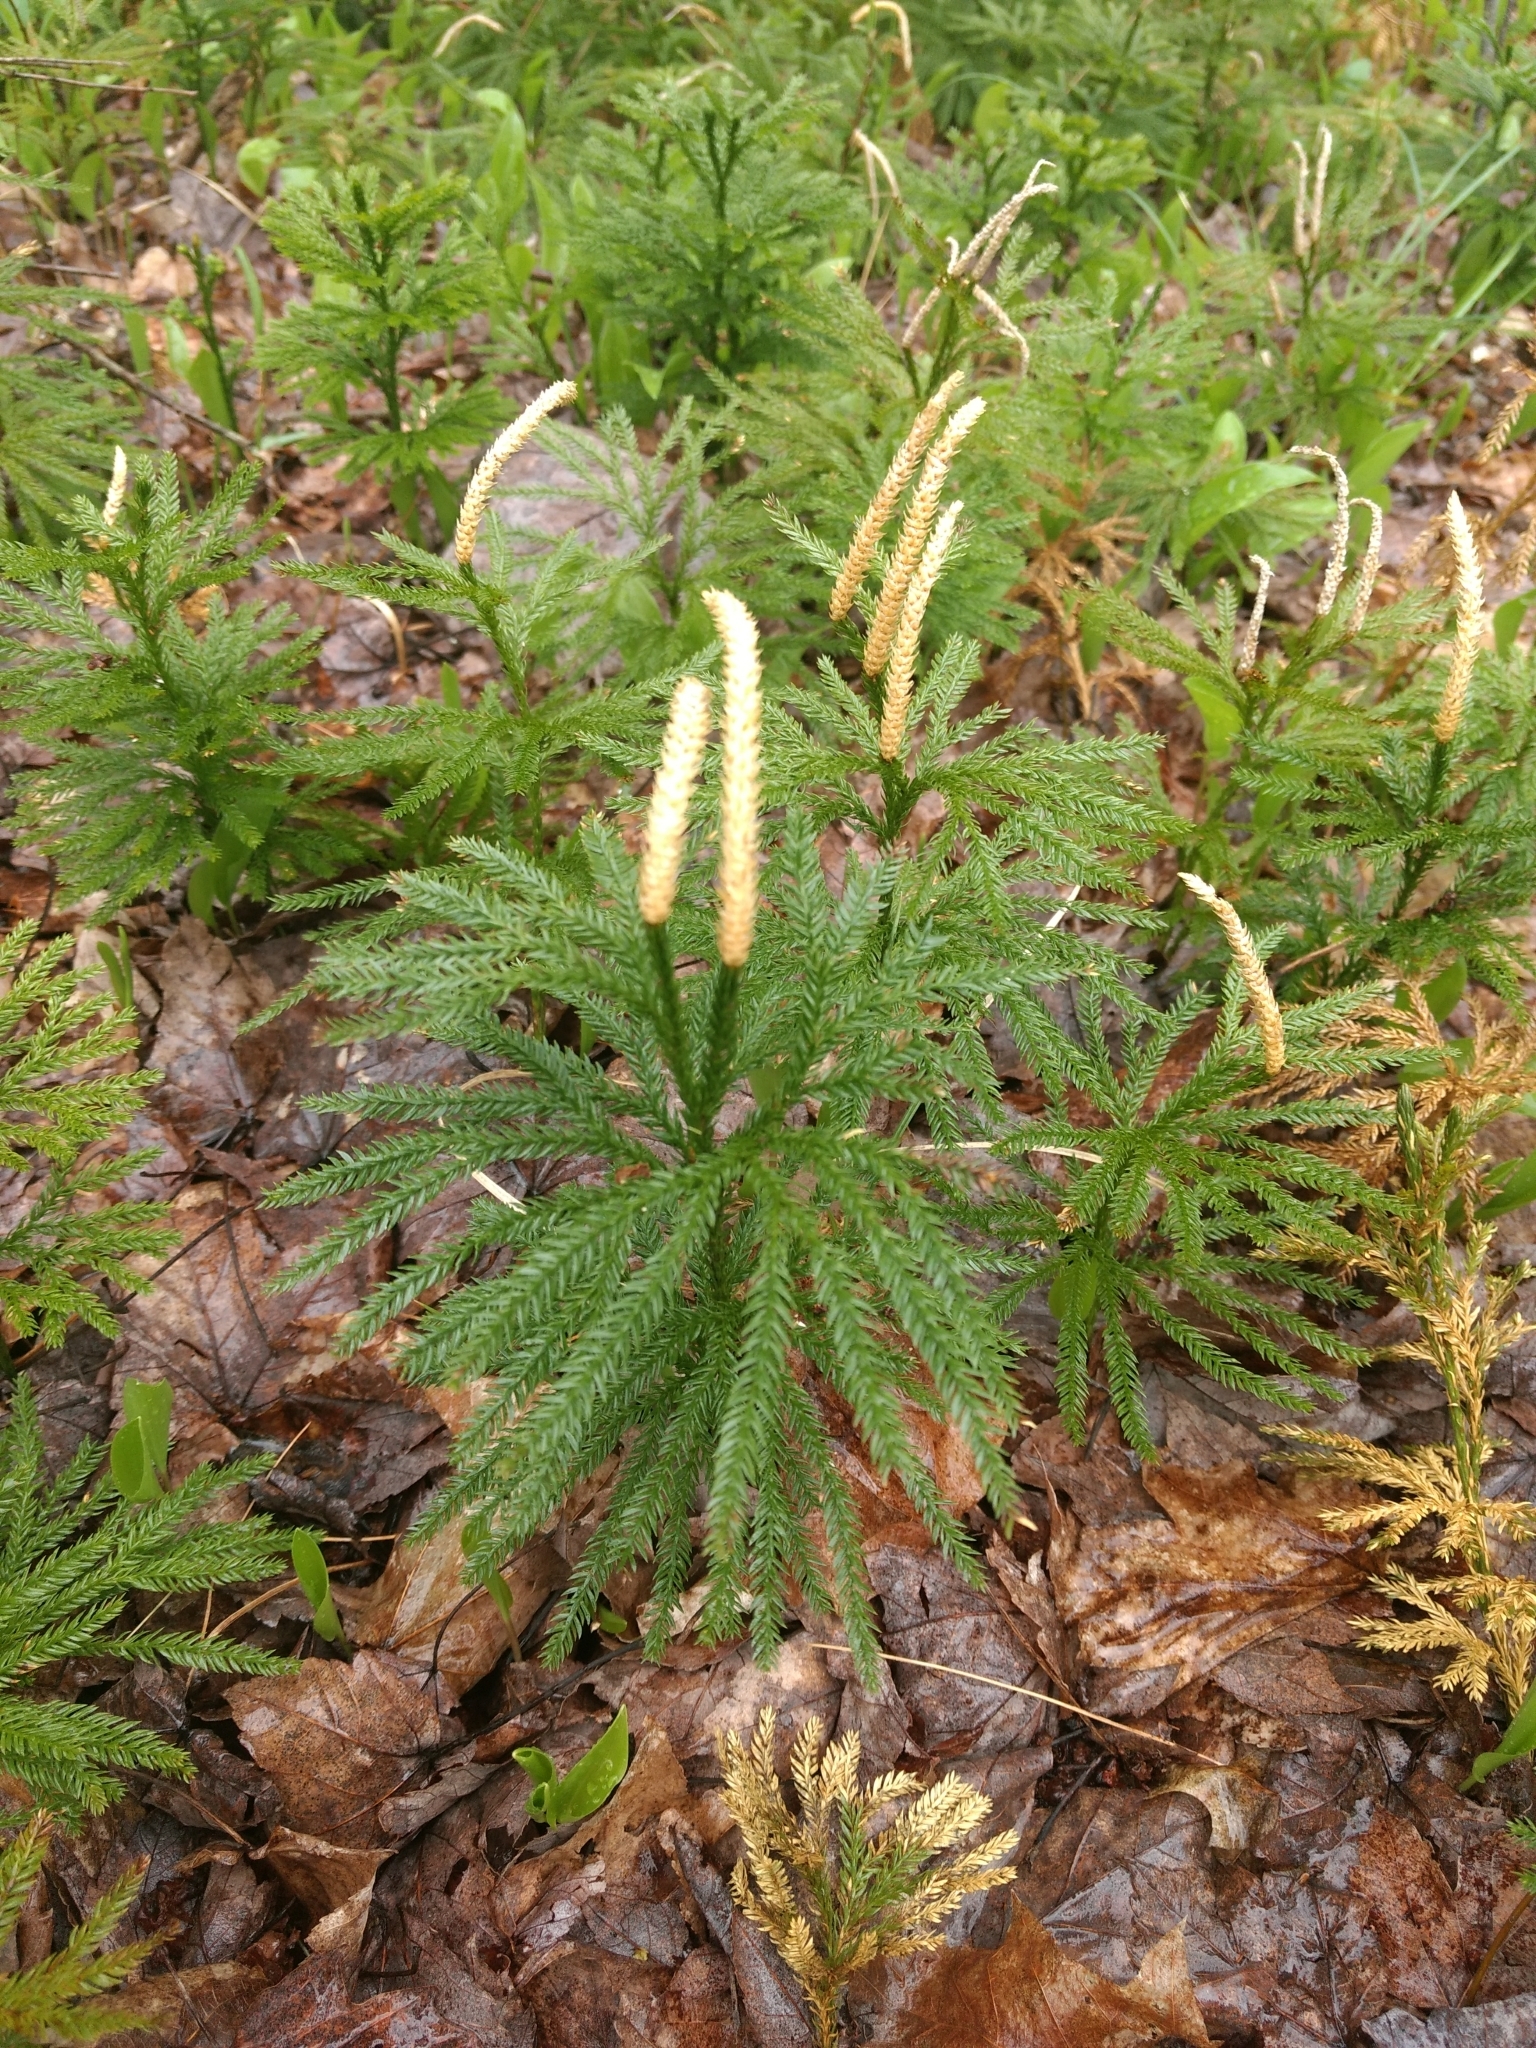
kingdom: Plantae
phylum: Tracheophyta
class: Lycopodiopsida
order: Lycopodiales
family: Lycopodiaceae
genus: Dendrolycopodium
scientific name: Dendrolycopodium obscurum
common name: Common ground-pine
